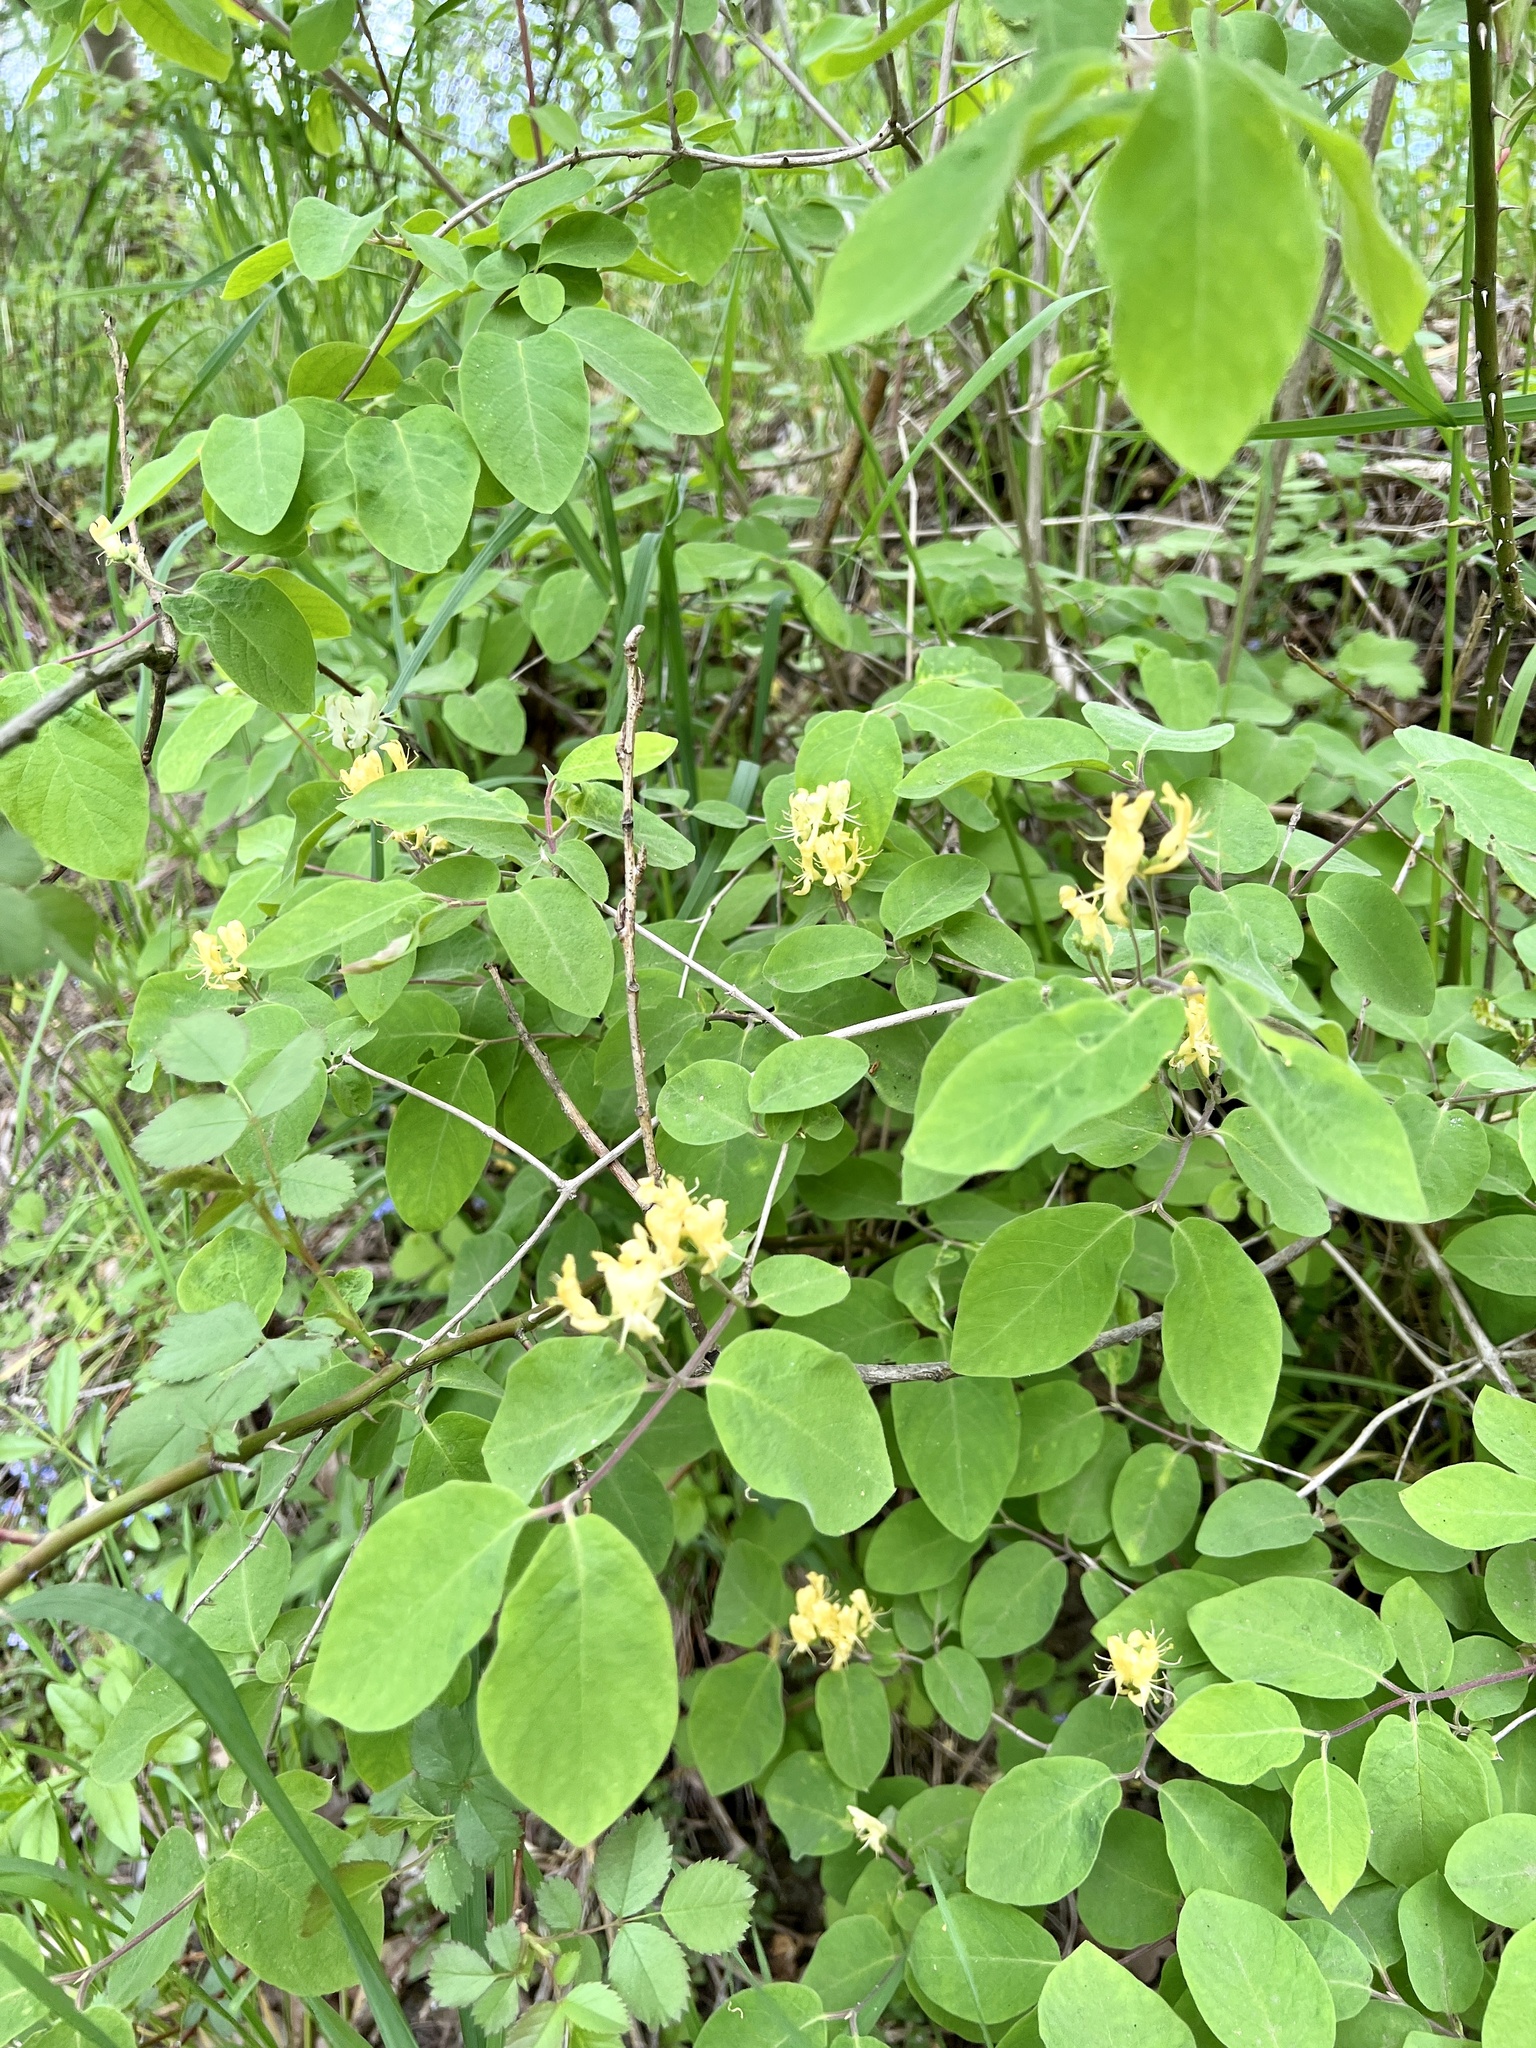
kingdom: Plantae
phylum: Tracheophyta
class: Magnoliopsida
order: Dipsacales
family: Caprifoliaceae
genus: Lonicera
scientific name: Lonicera xylosteum
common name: Fly honeysuckle
